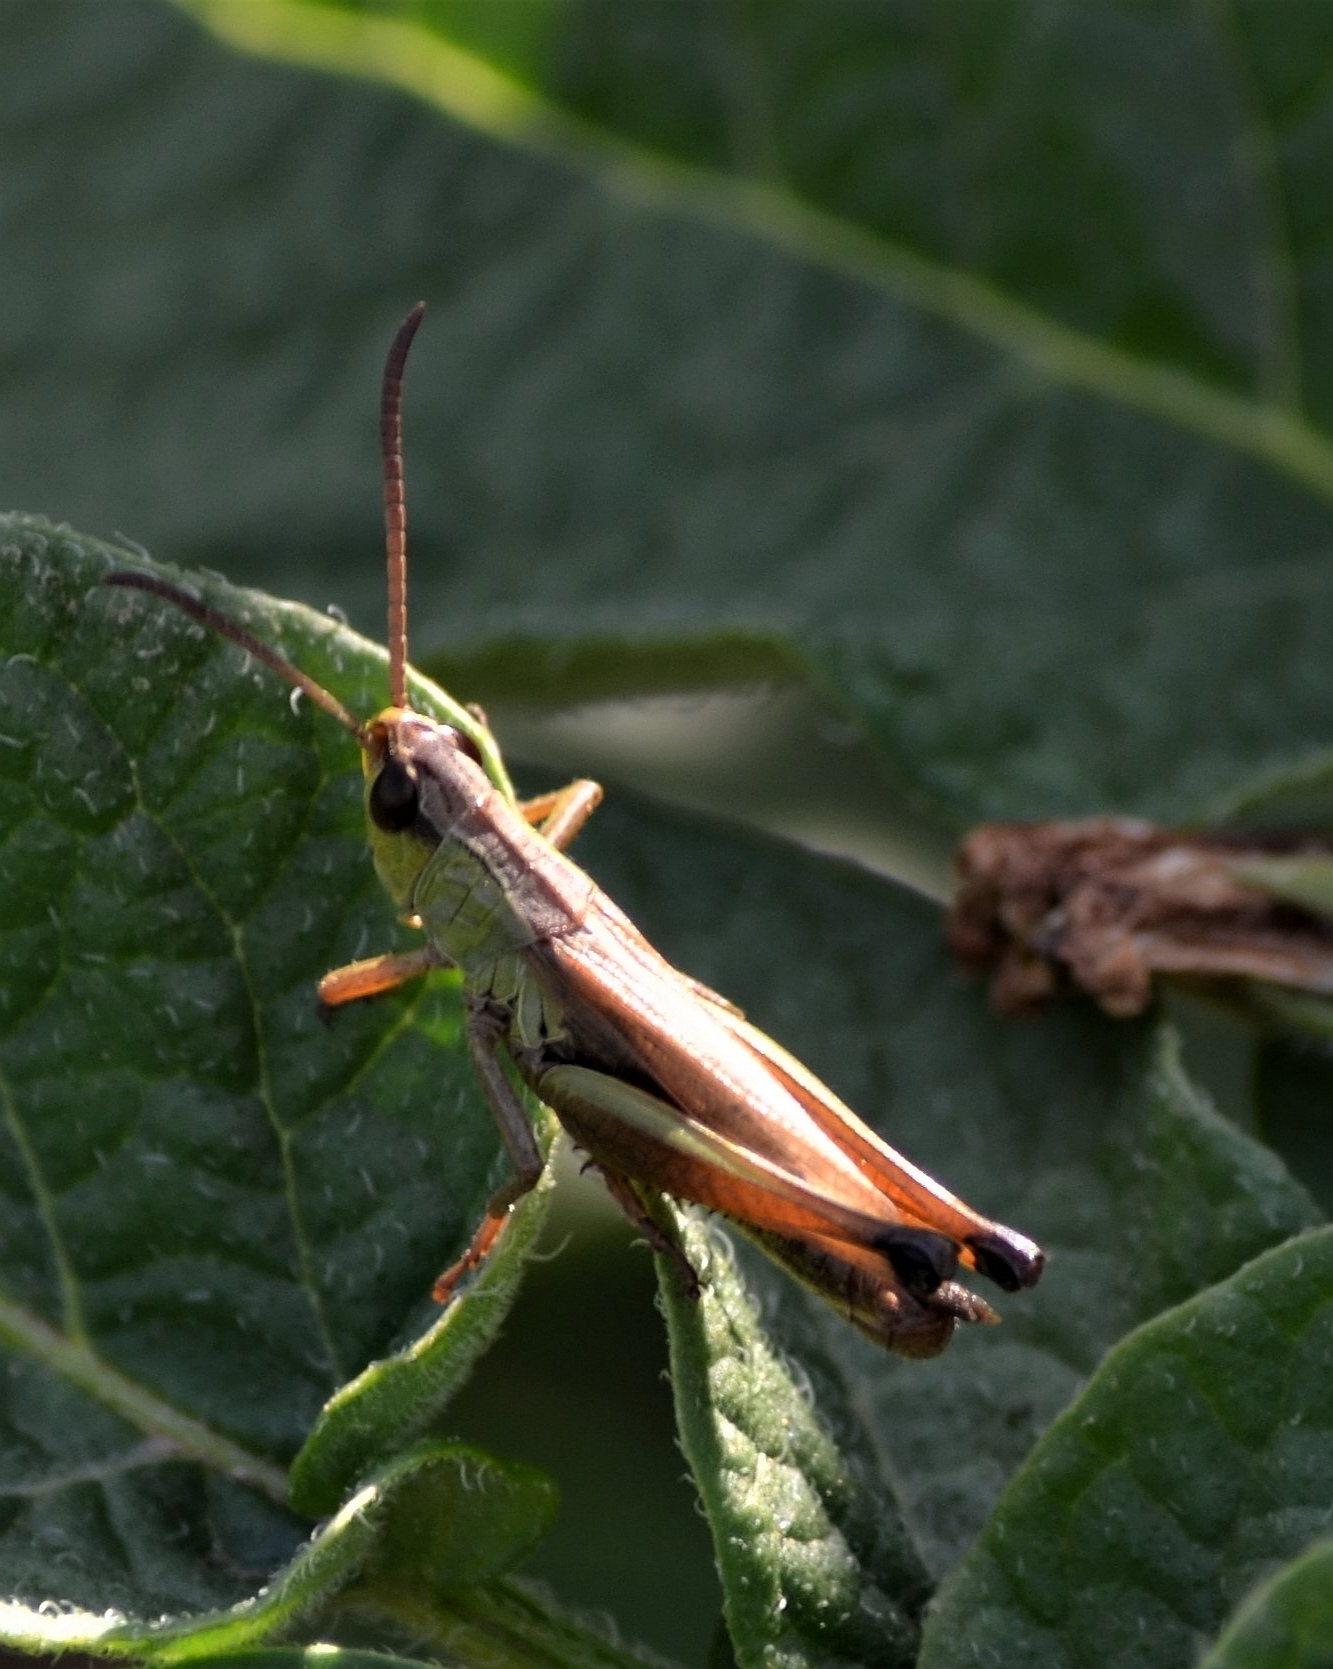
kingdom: Animalia
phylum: Arthropoda
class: Insecta
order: Orthoptera
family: Acrididae
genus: Gomphocerippus
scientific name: Gomphocerippus rufus
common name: Rufous grasshopper
